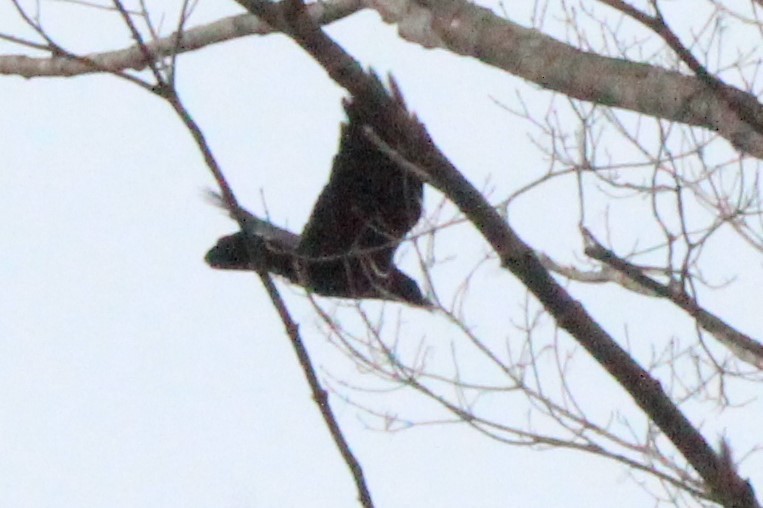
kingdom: Animalia
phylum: Chordata
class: Aves
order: Passeriformes
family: Corvidae
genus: Corvus
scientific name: Corvus brachyrhynchos
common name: American crow
